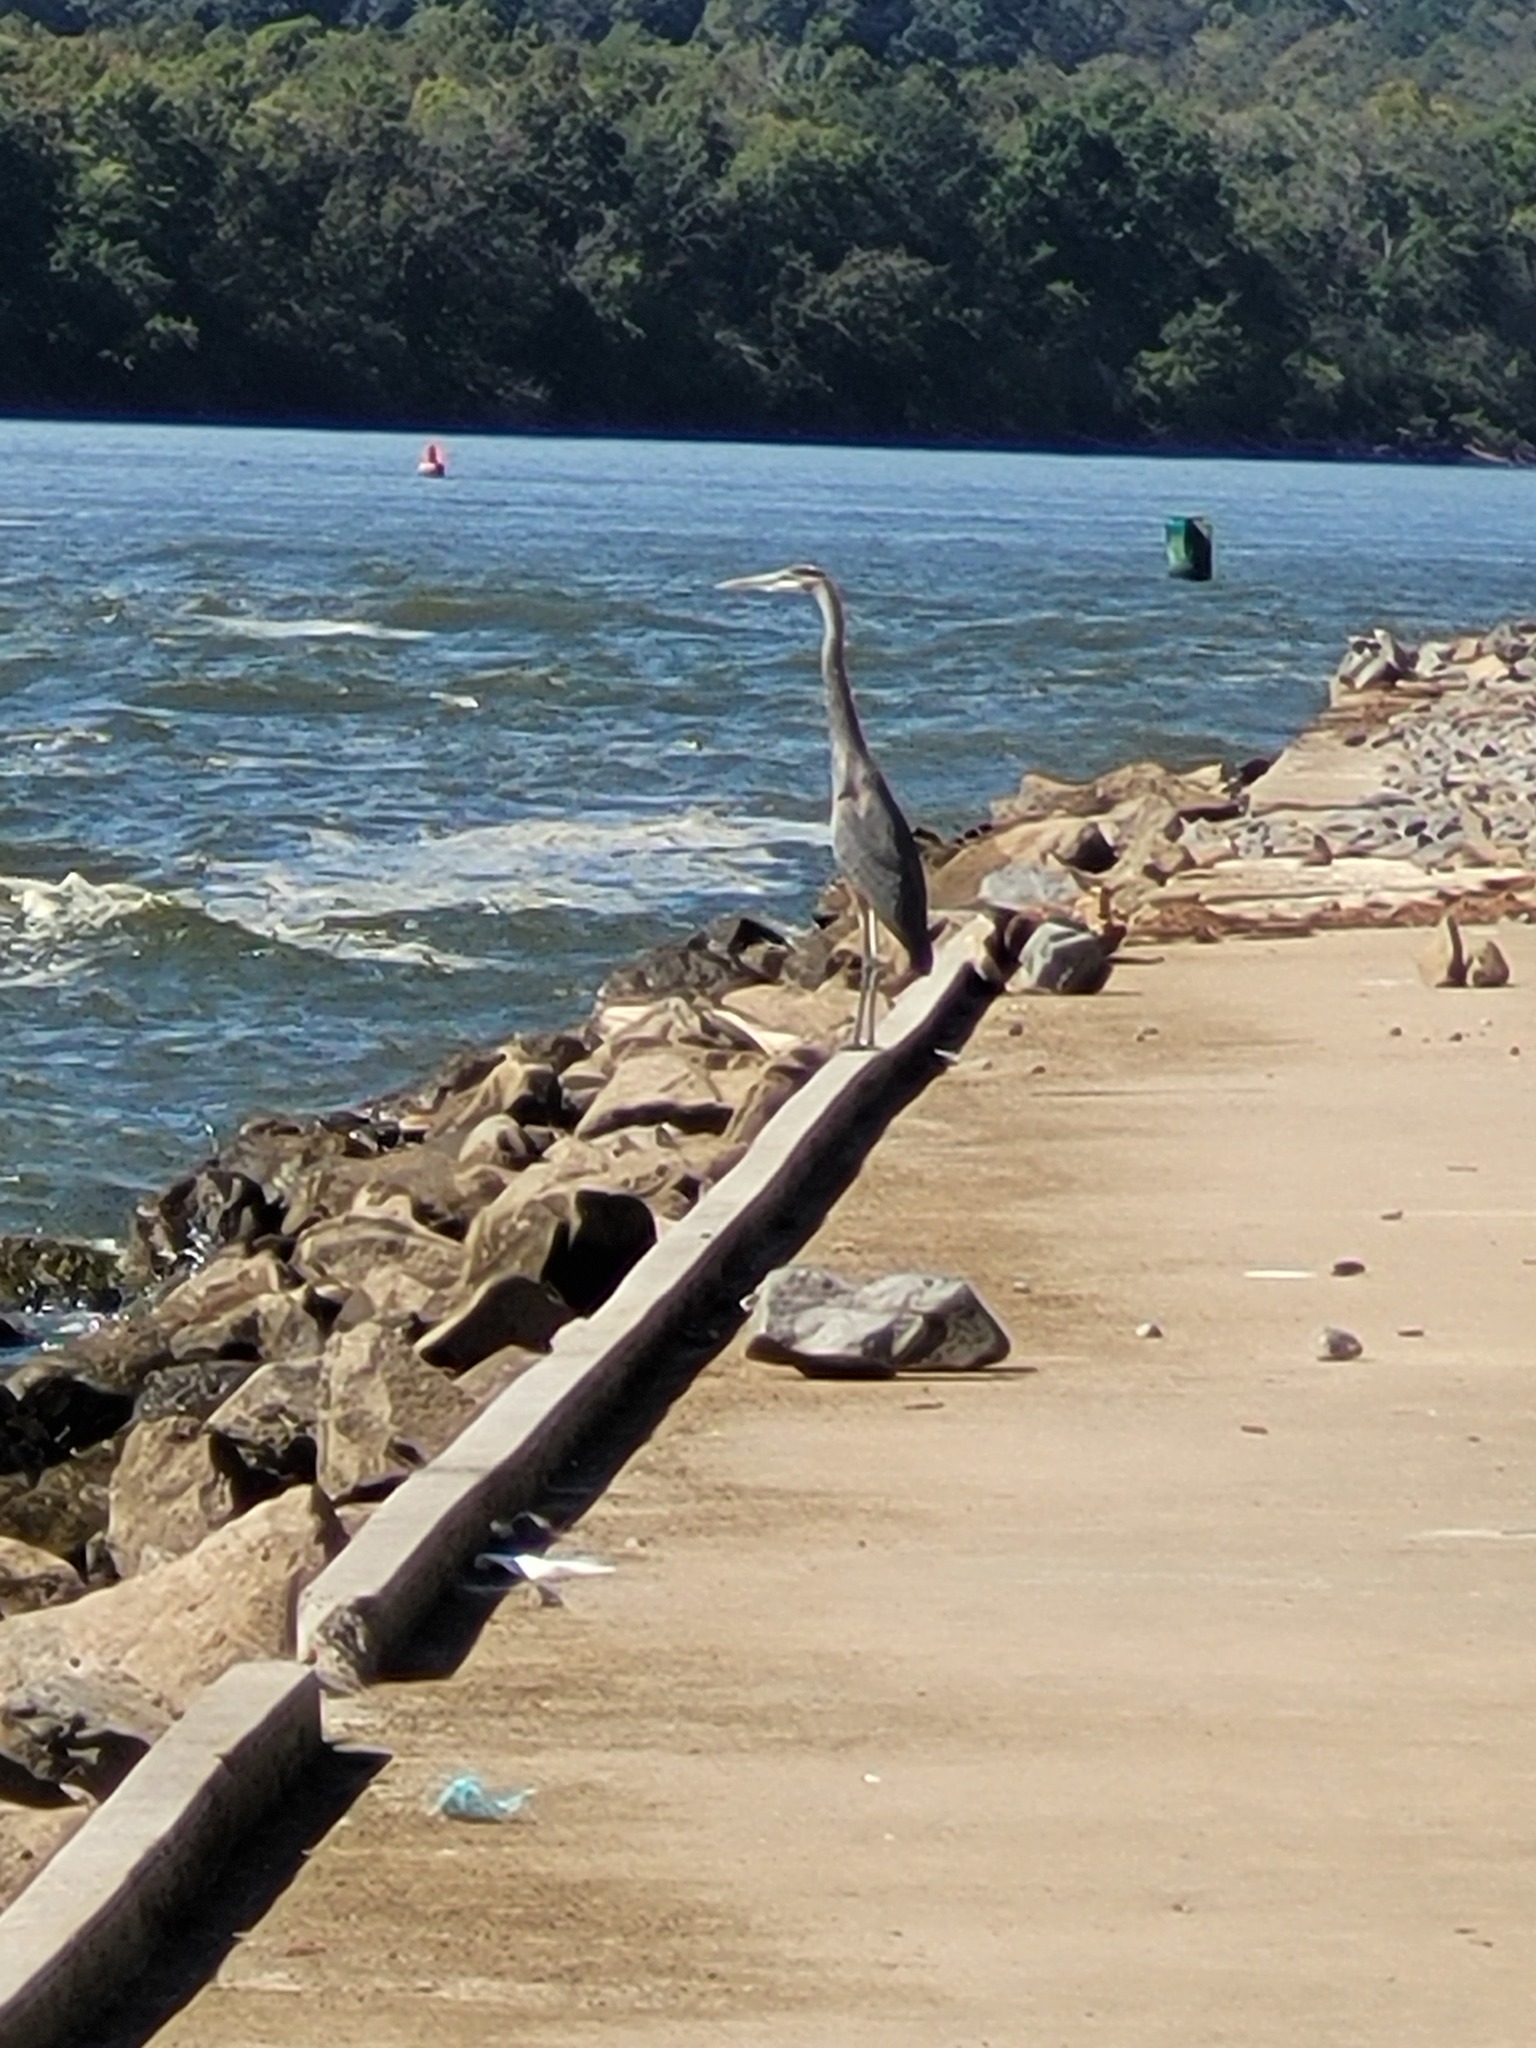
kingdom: Animalia
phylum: Chordata
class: Aves
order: Pelecaniformes
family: Ardeidae
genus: Ardea
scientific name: Ardea herodias
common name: Great blue heron
